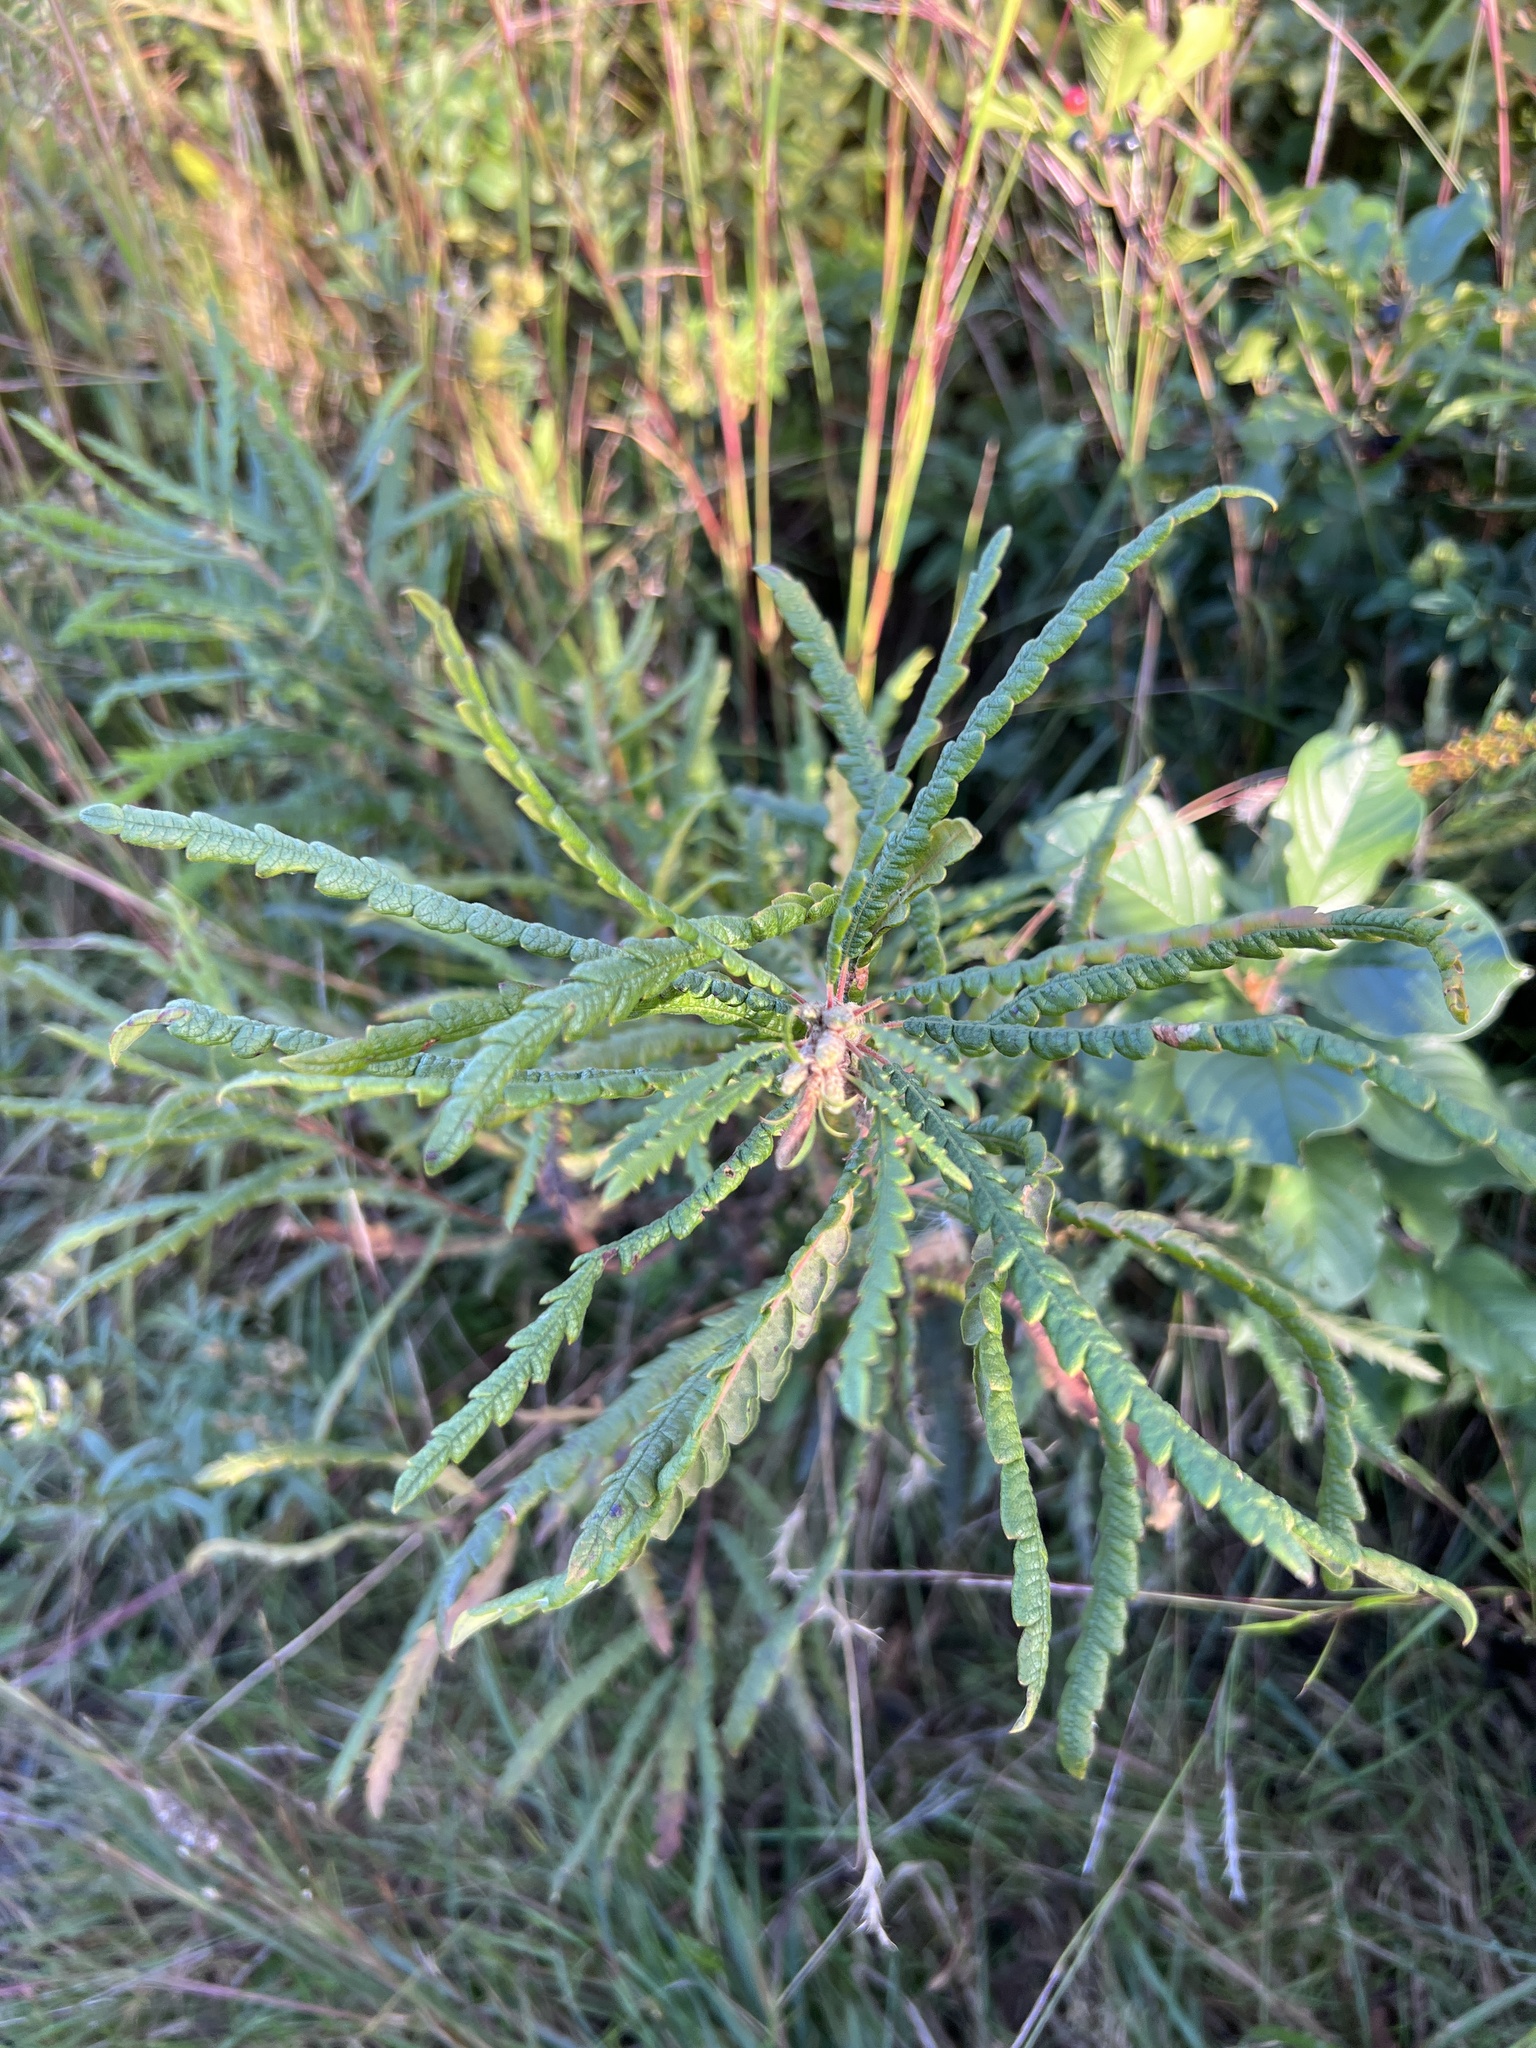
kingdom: Plantae
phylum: Tracheophyta
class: Magnoliopsida
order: Fagales
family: Myricaceae
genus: Comptonia
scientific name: Comptonia peregrina
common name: Sweet-fern
